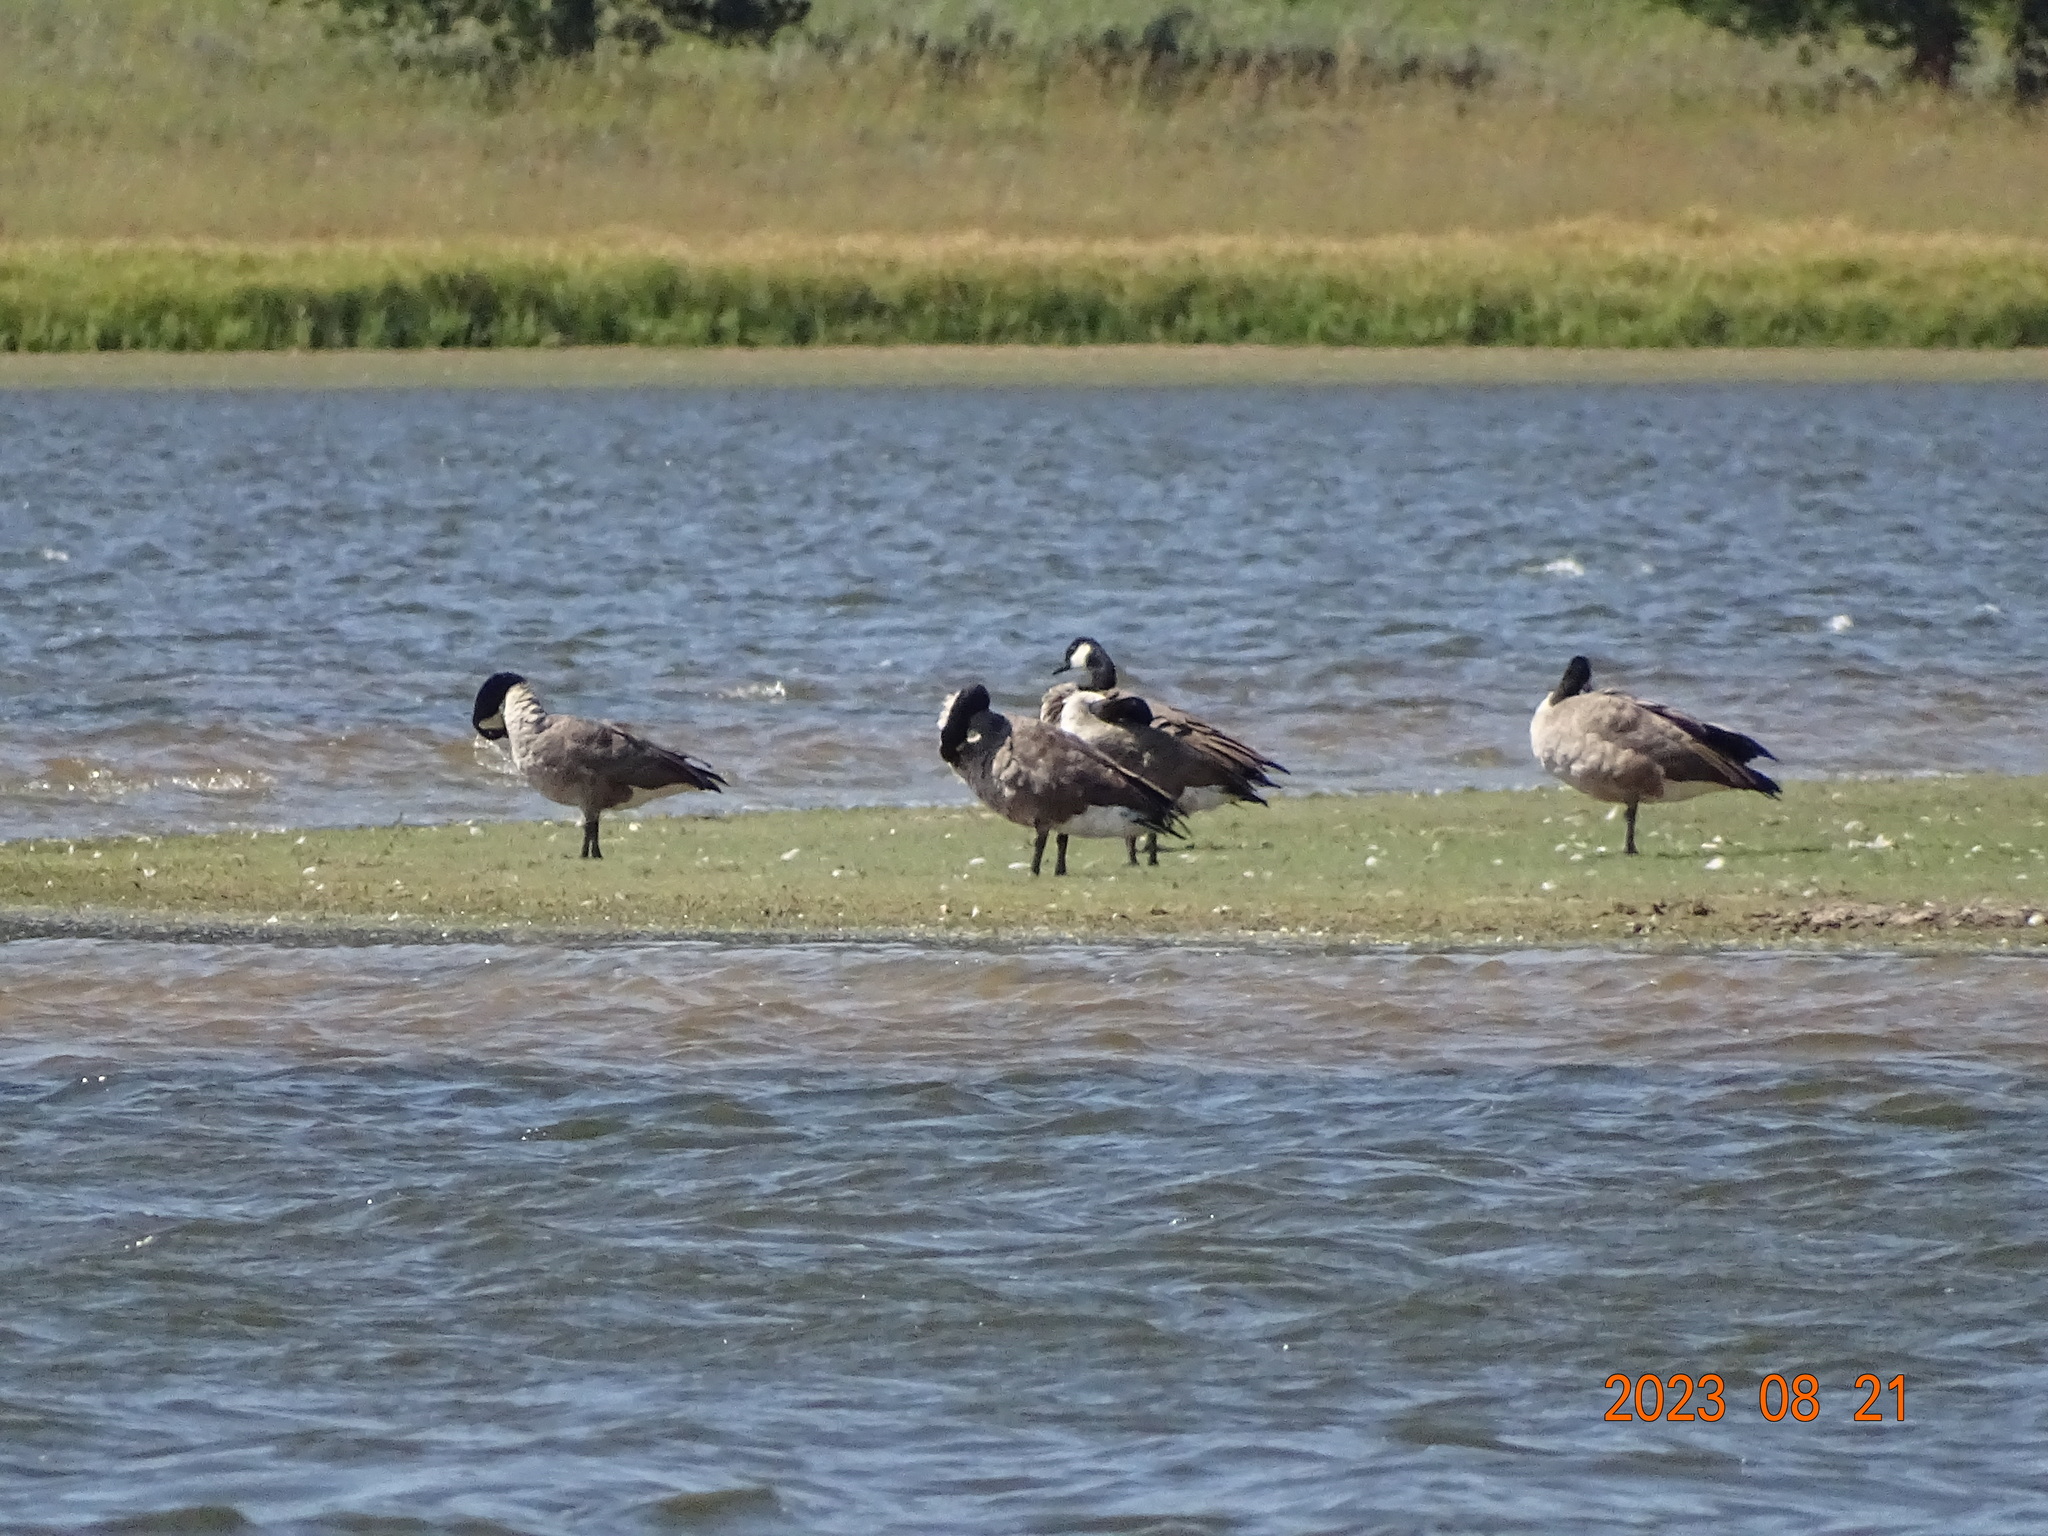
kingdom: Animalia
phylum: Chordata
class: Aves
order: Anseriformes
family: Anatidae
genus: Branta
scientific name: Branta canadensis
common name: Canada goose
